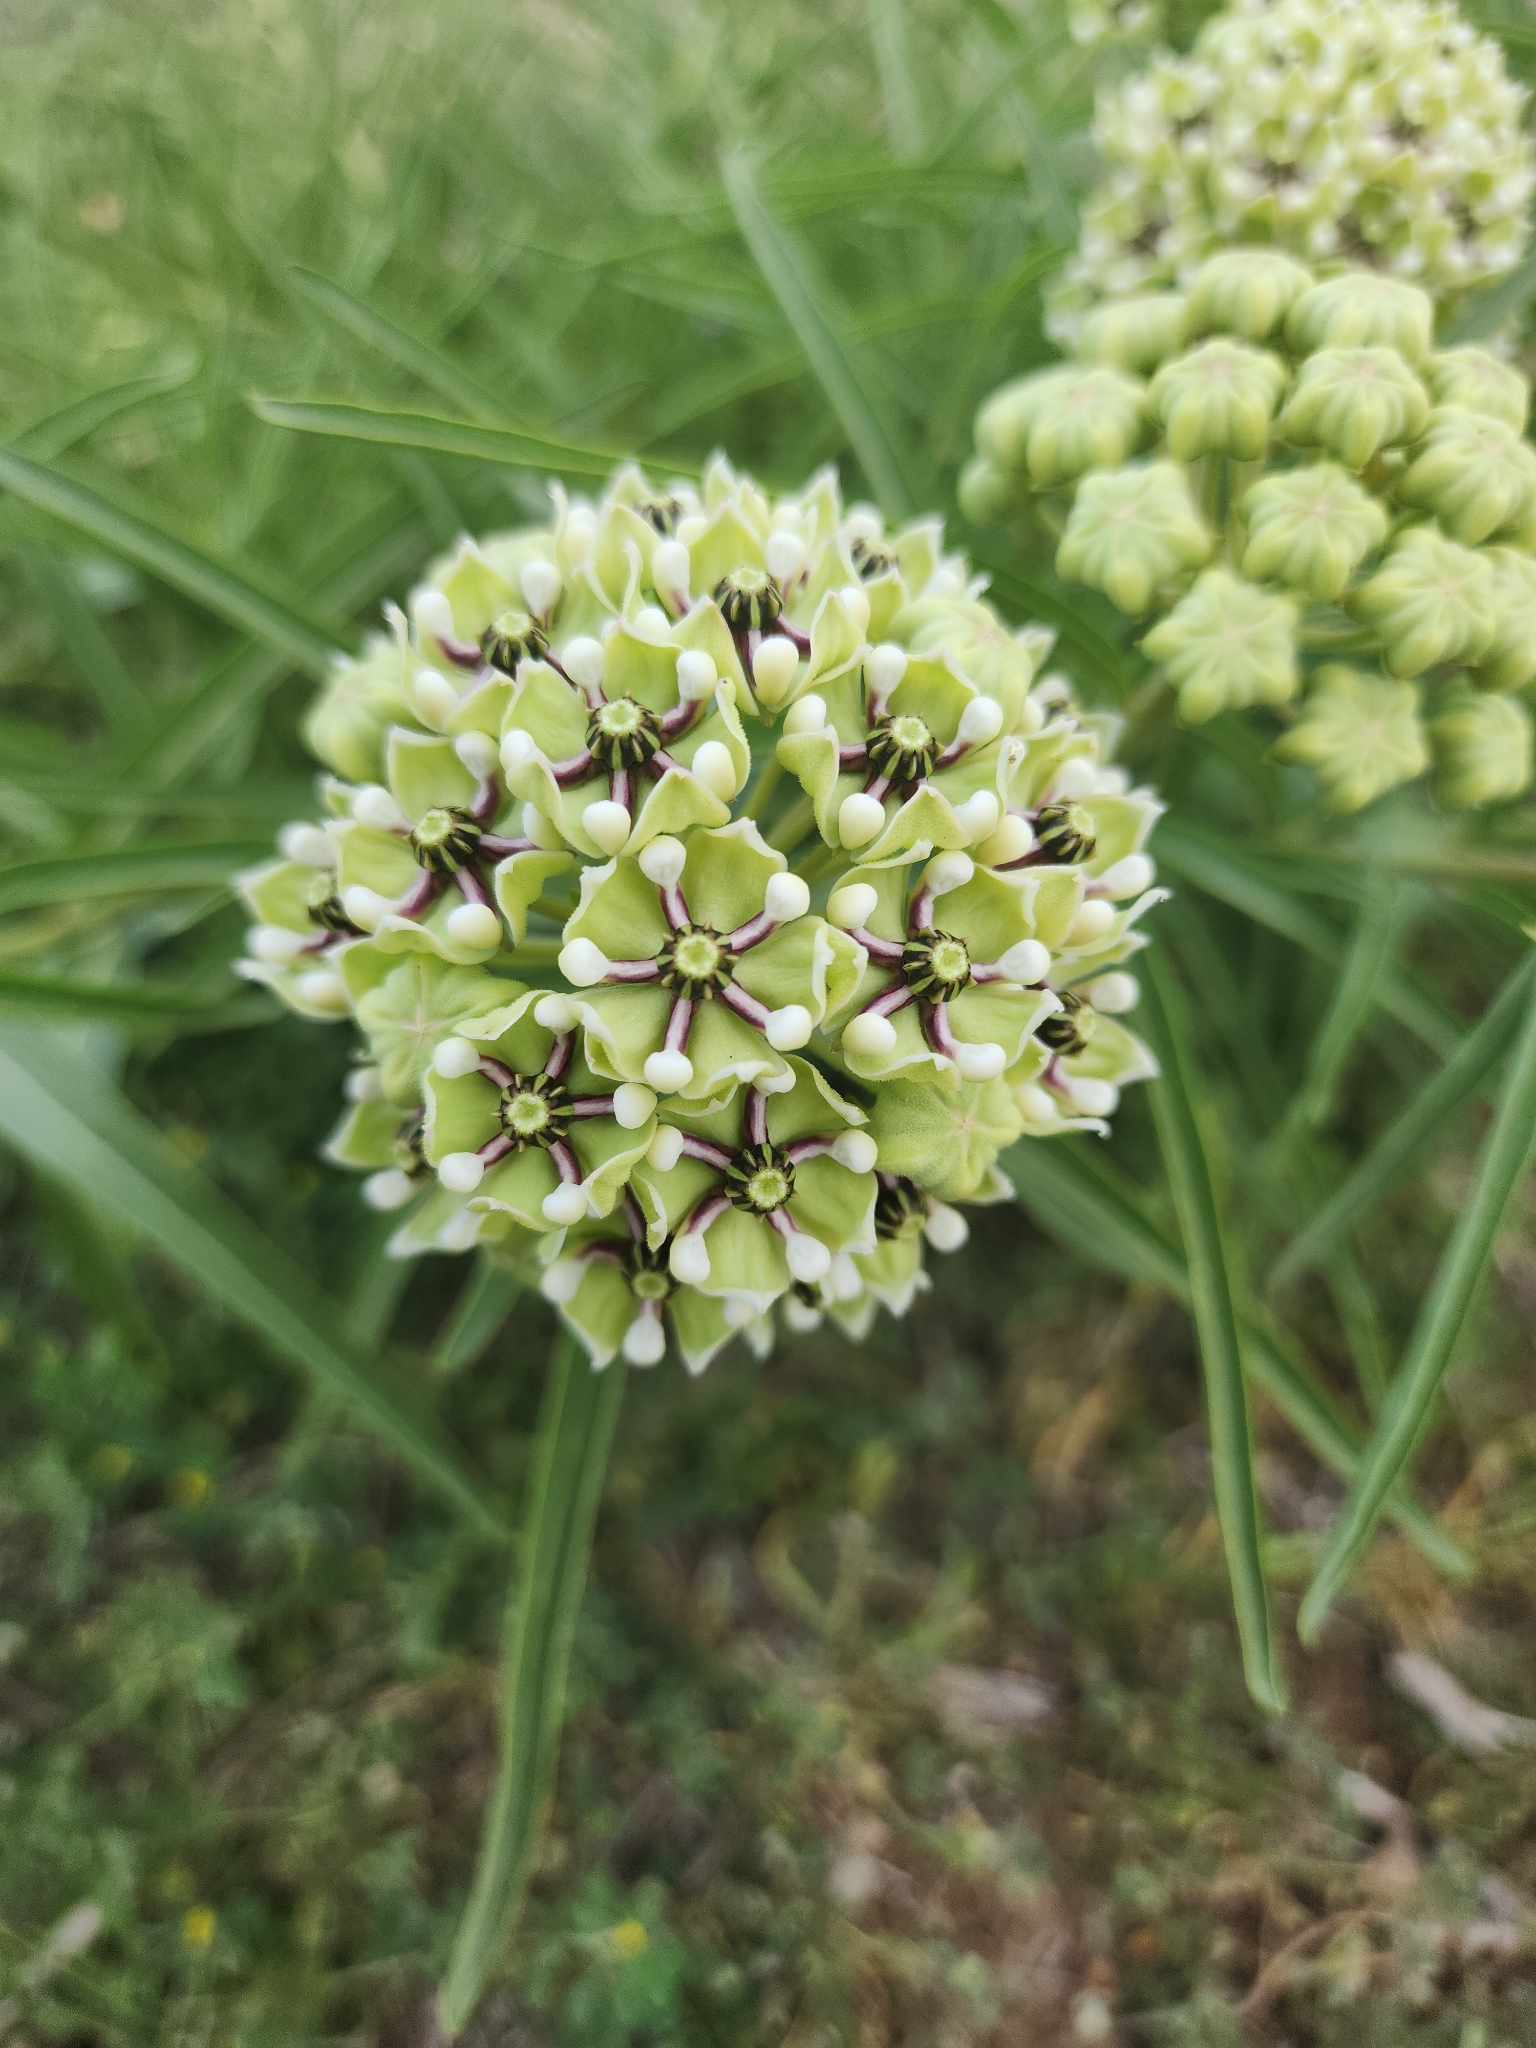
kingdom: Plantae
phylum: Tracheophyta
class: Magnoliopsida
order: Gentianales
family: Apocynaceae
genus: Asclepias
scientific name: Asclepias asperula
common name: Antelope horns
